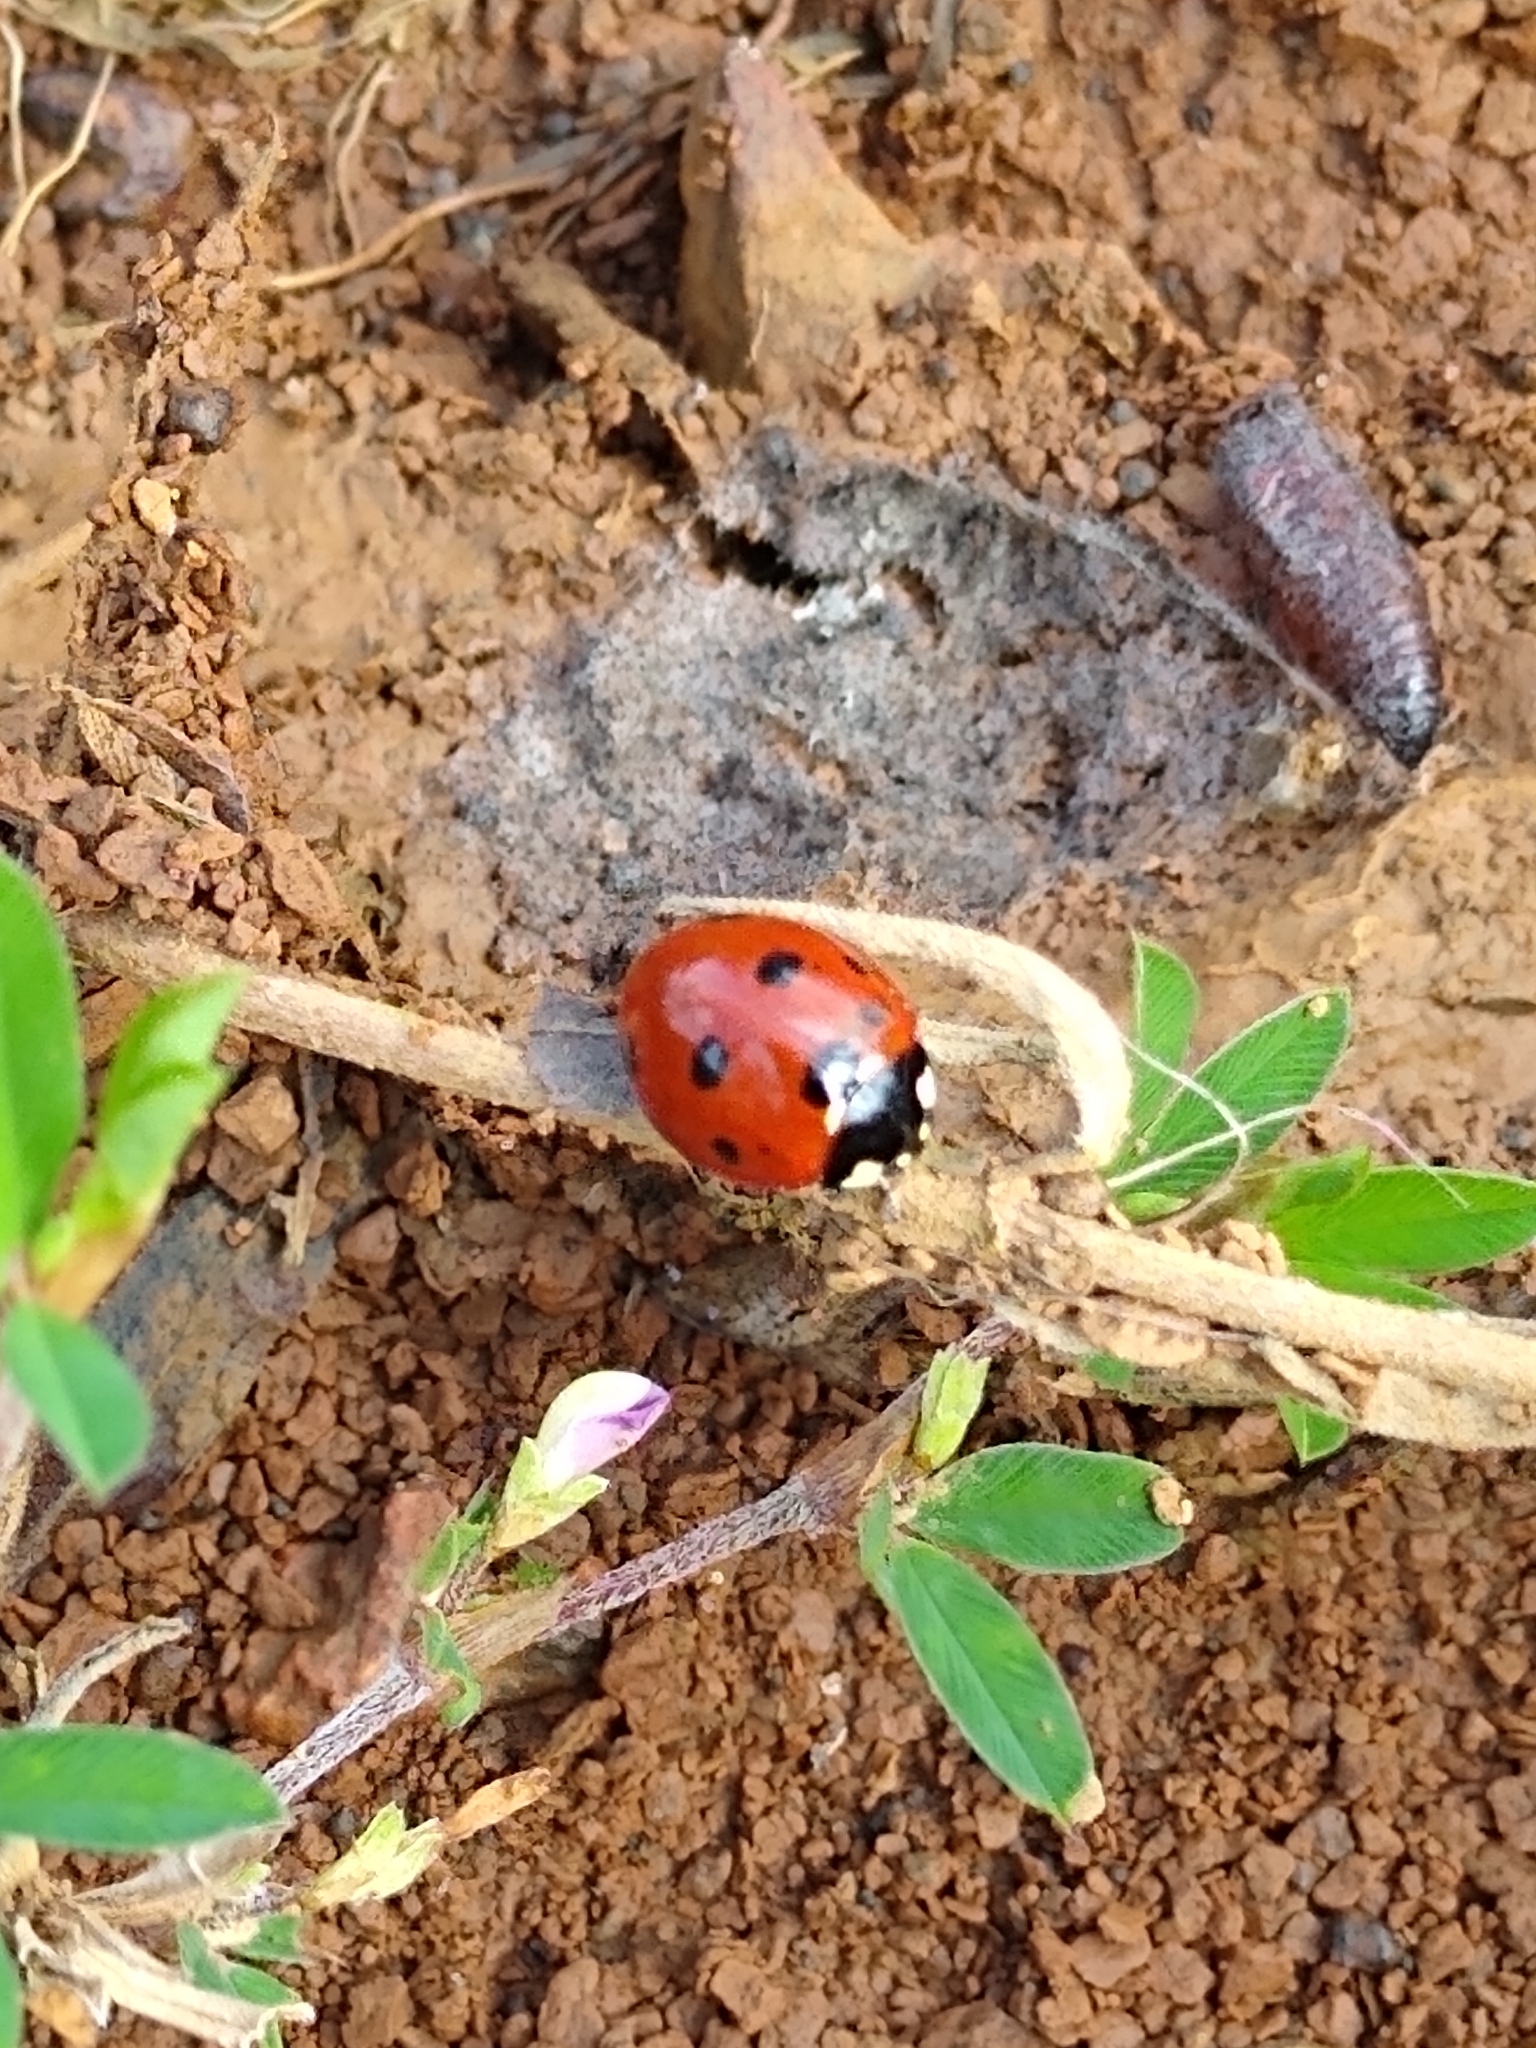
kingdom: Animalia
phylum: Arthropoda
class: Insecta
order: Coleoptera
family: Coccinellidae
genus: Coccinella
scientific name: Coccinella septempunctata
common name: Sevenspotted lady beetle
